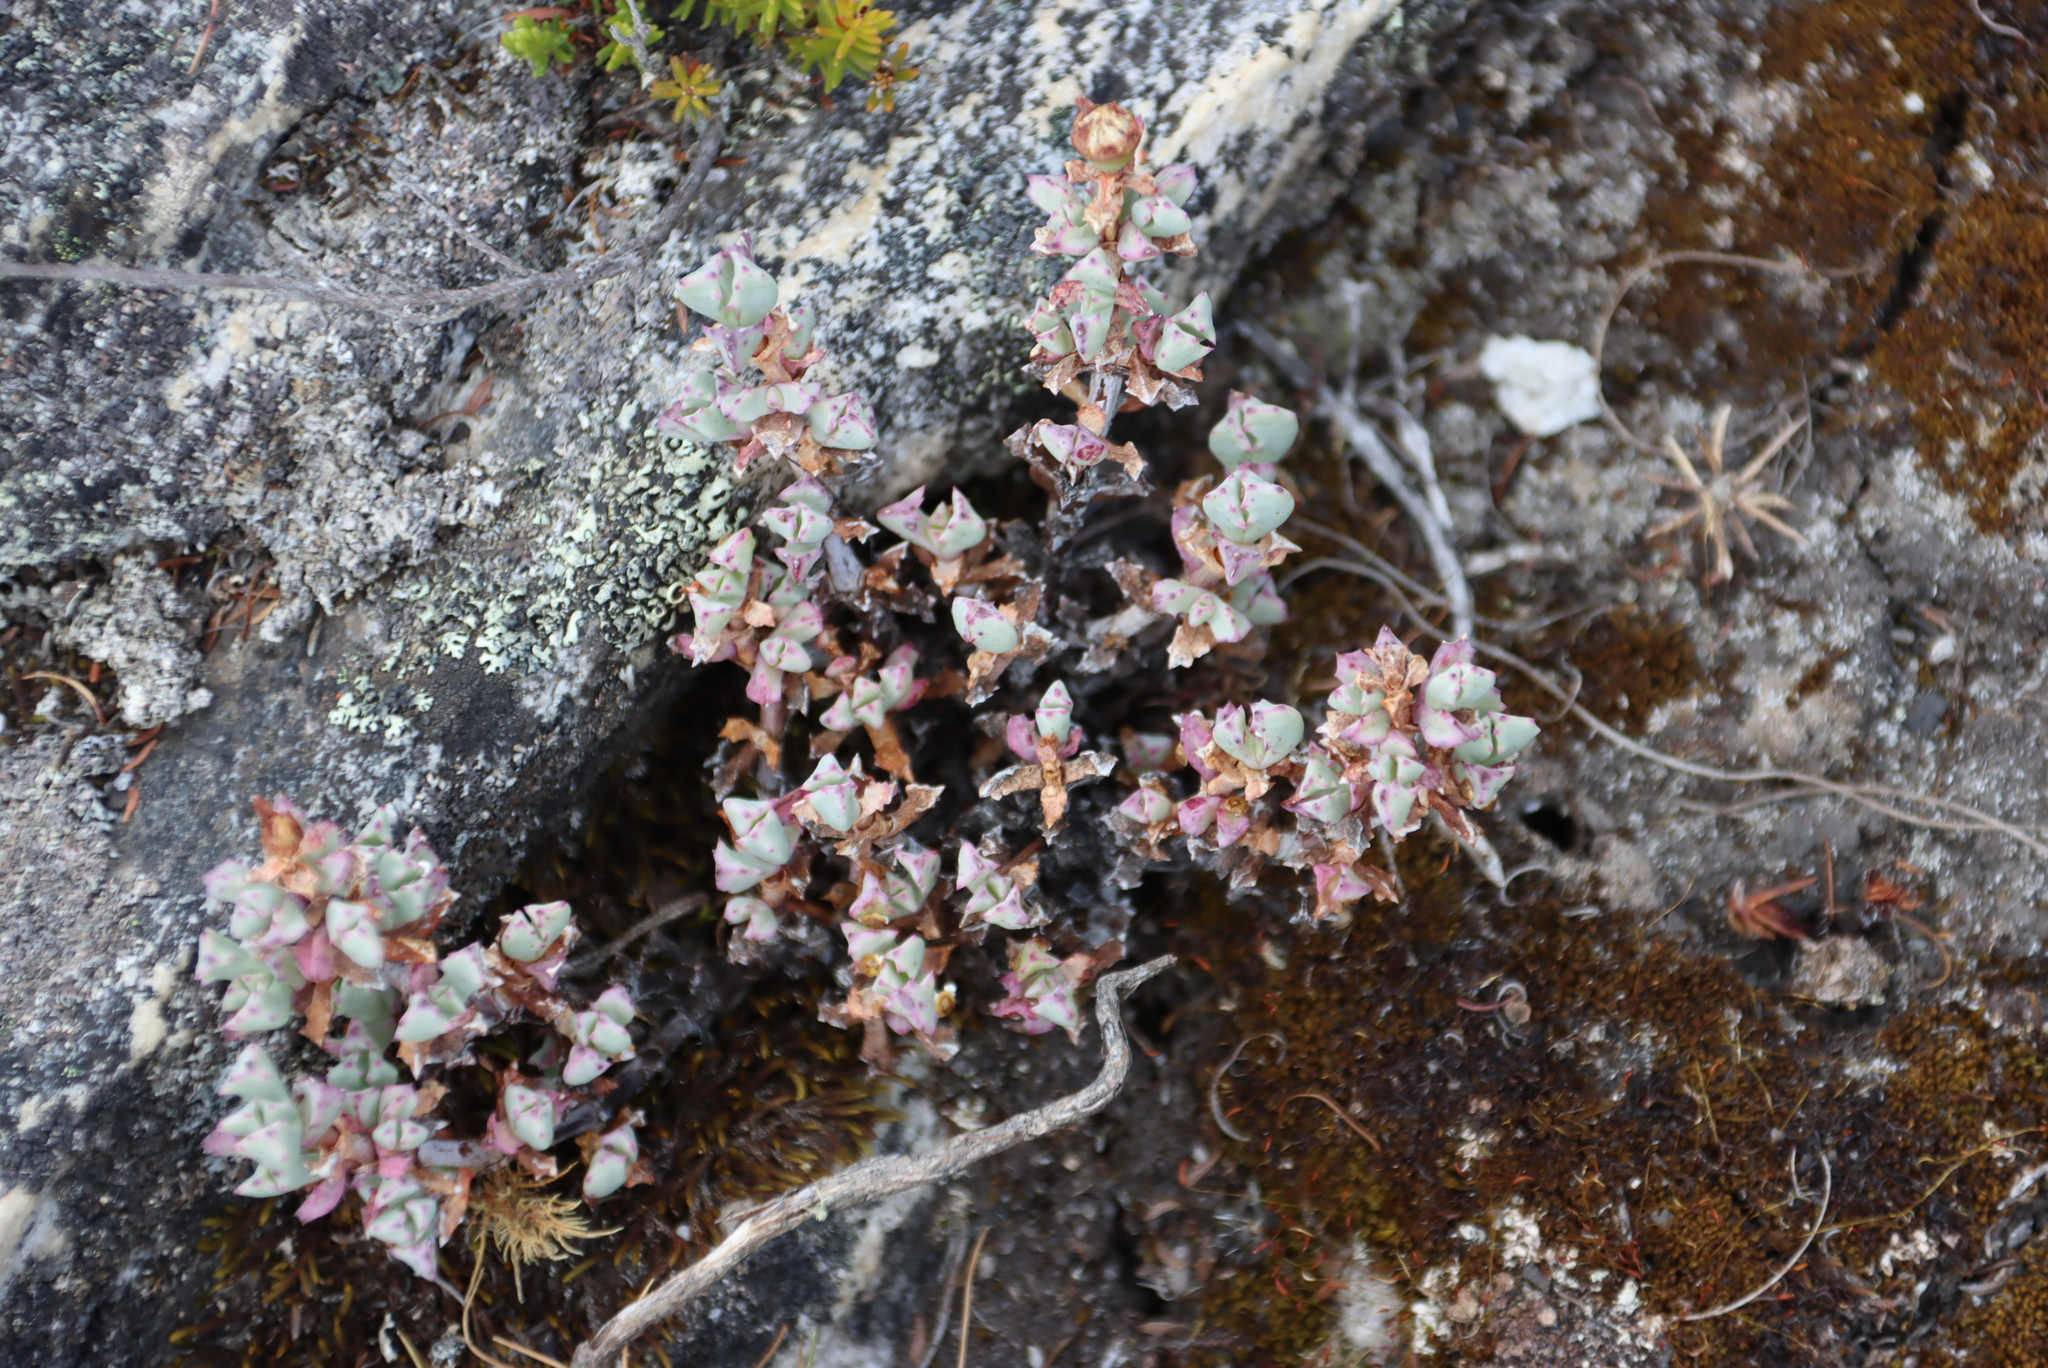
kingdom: Plantae
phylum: Tracheophyta
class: Magnoliopsida
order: Caryophyllales
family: Aizoaceae
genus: Oscularia
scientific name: Oscularia deltoides
